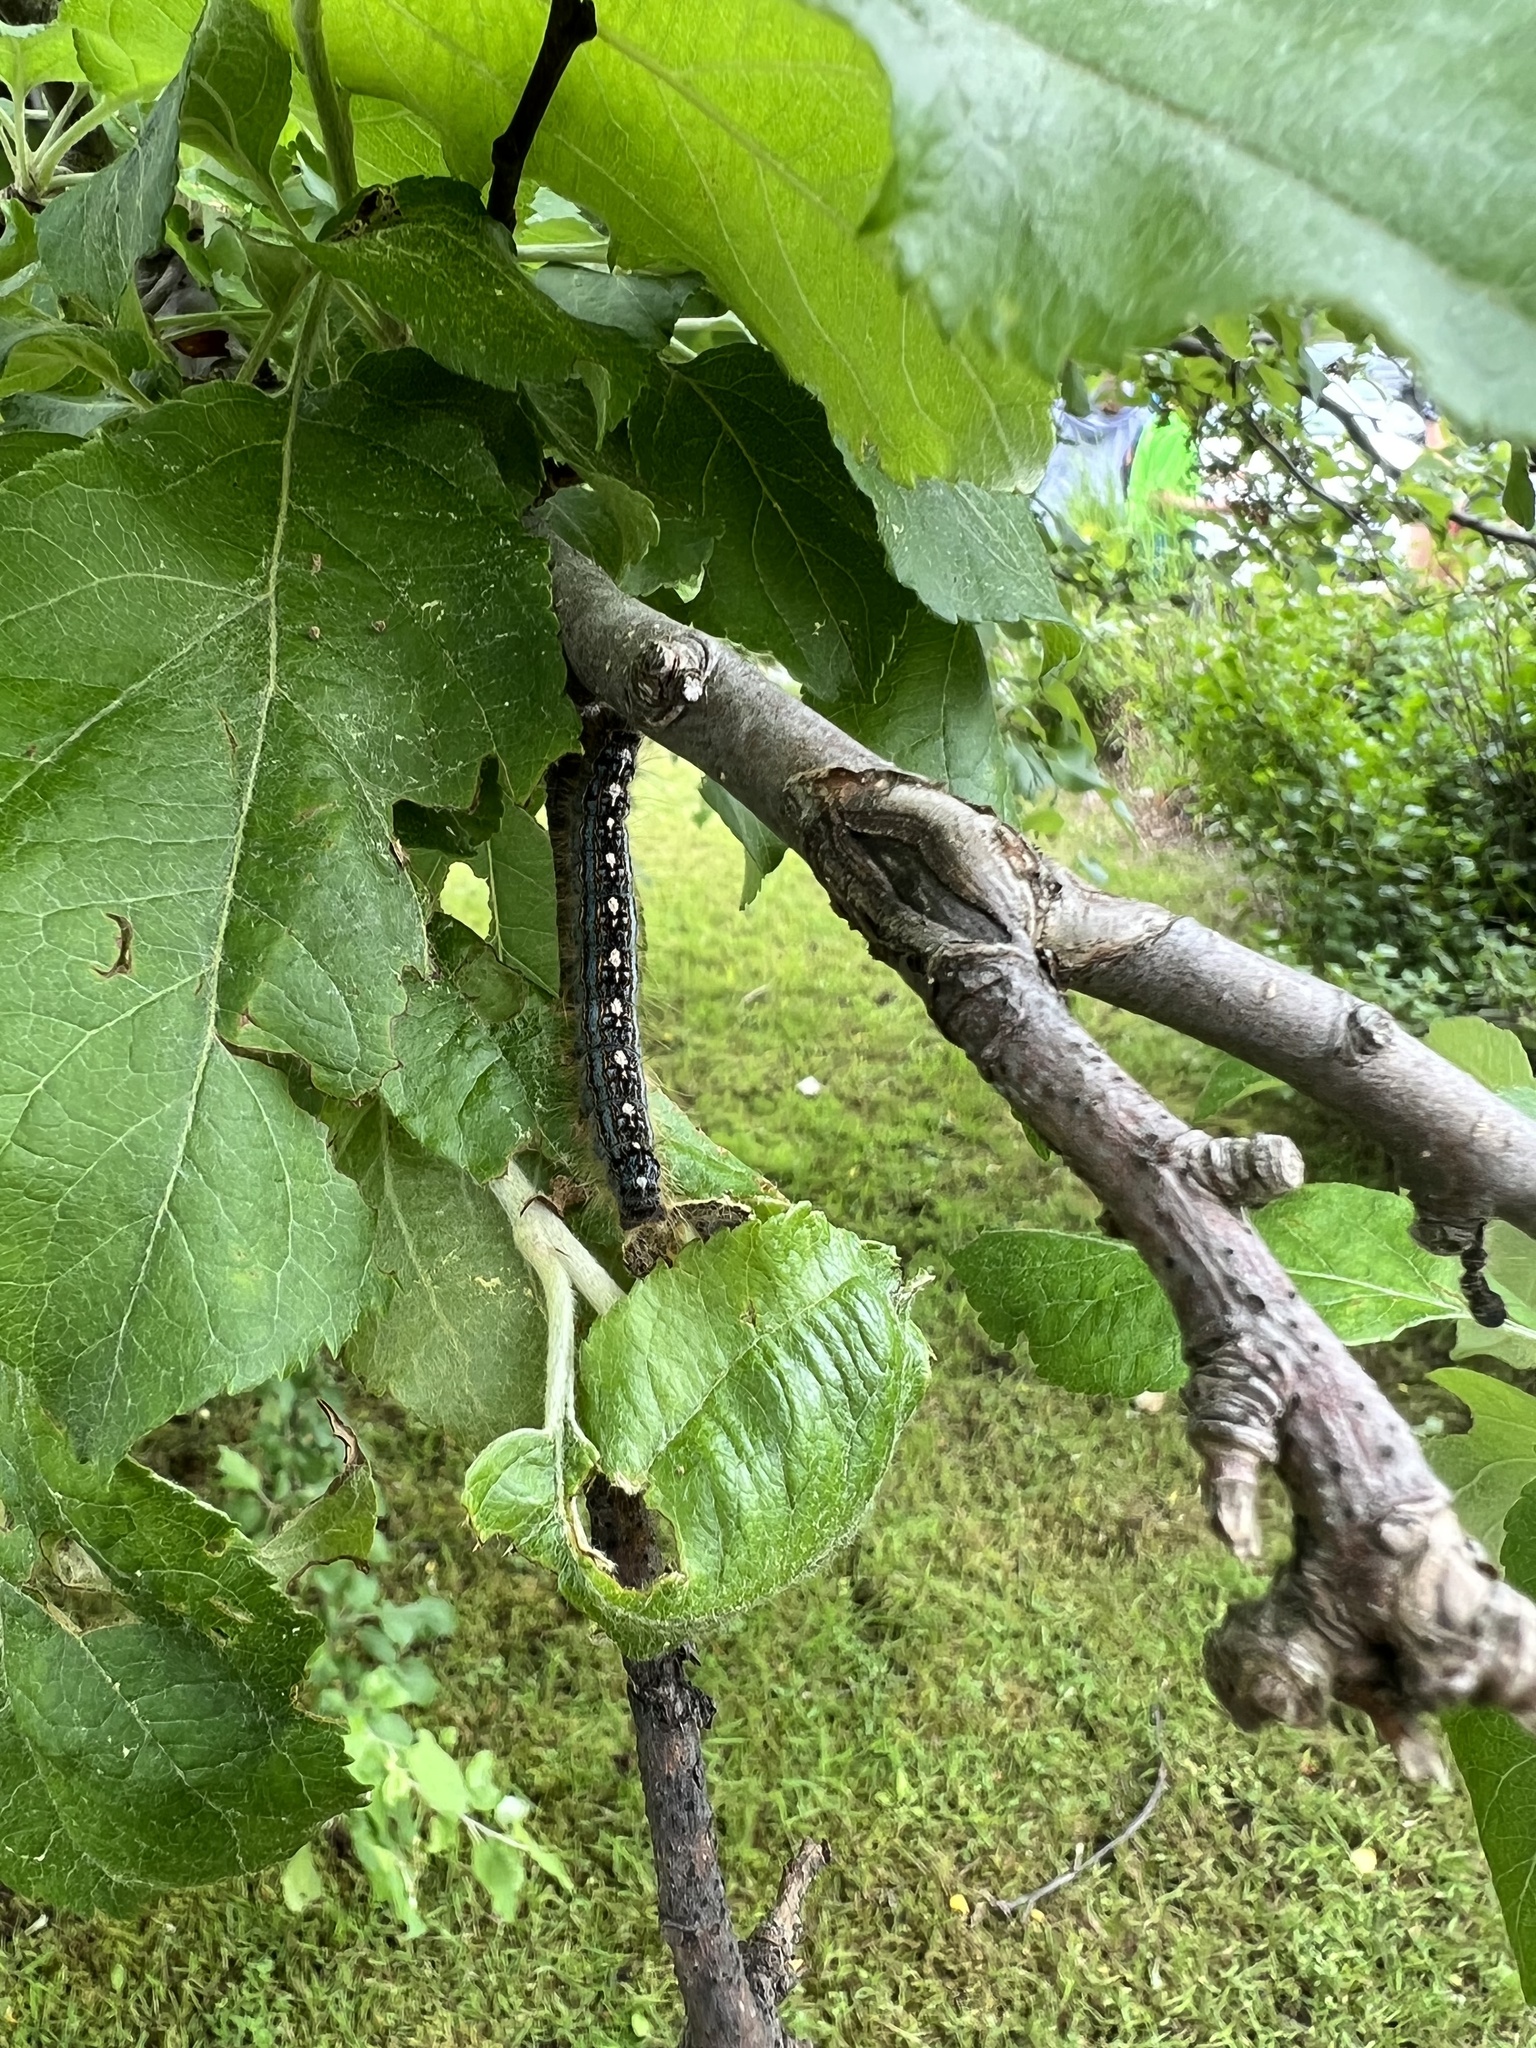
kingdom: Animalia
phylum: Arthropoda
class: Insecta
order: Lepidoptera
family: Lasiocampidae
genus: Malacosoma
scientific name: Malacosoma disstria
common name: Forest tent caterpillar
